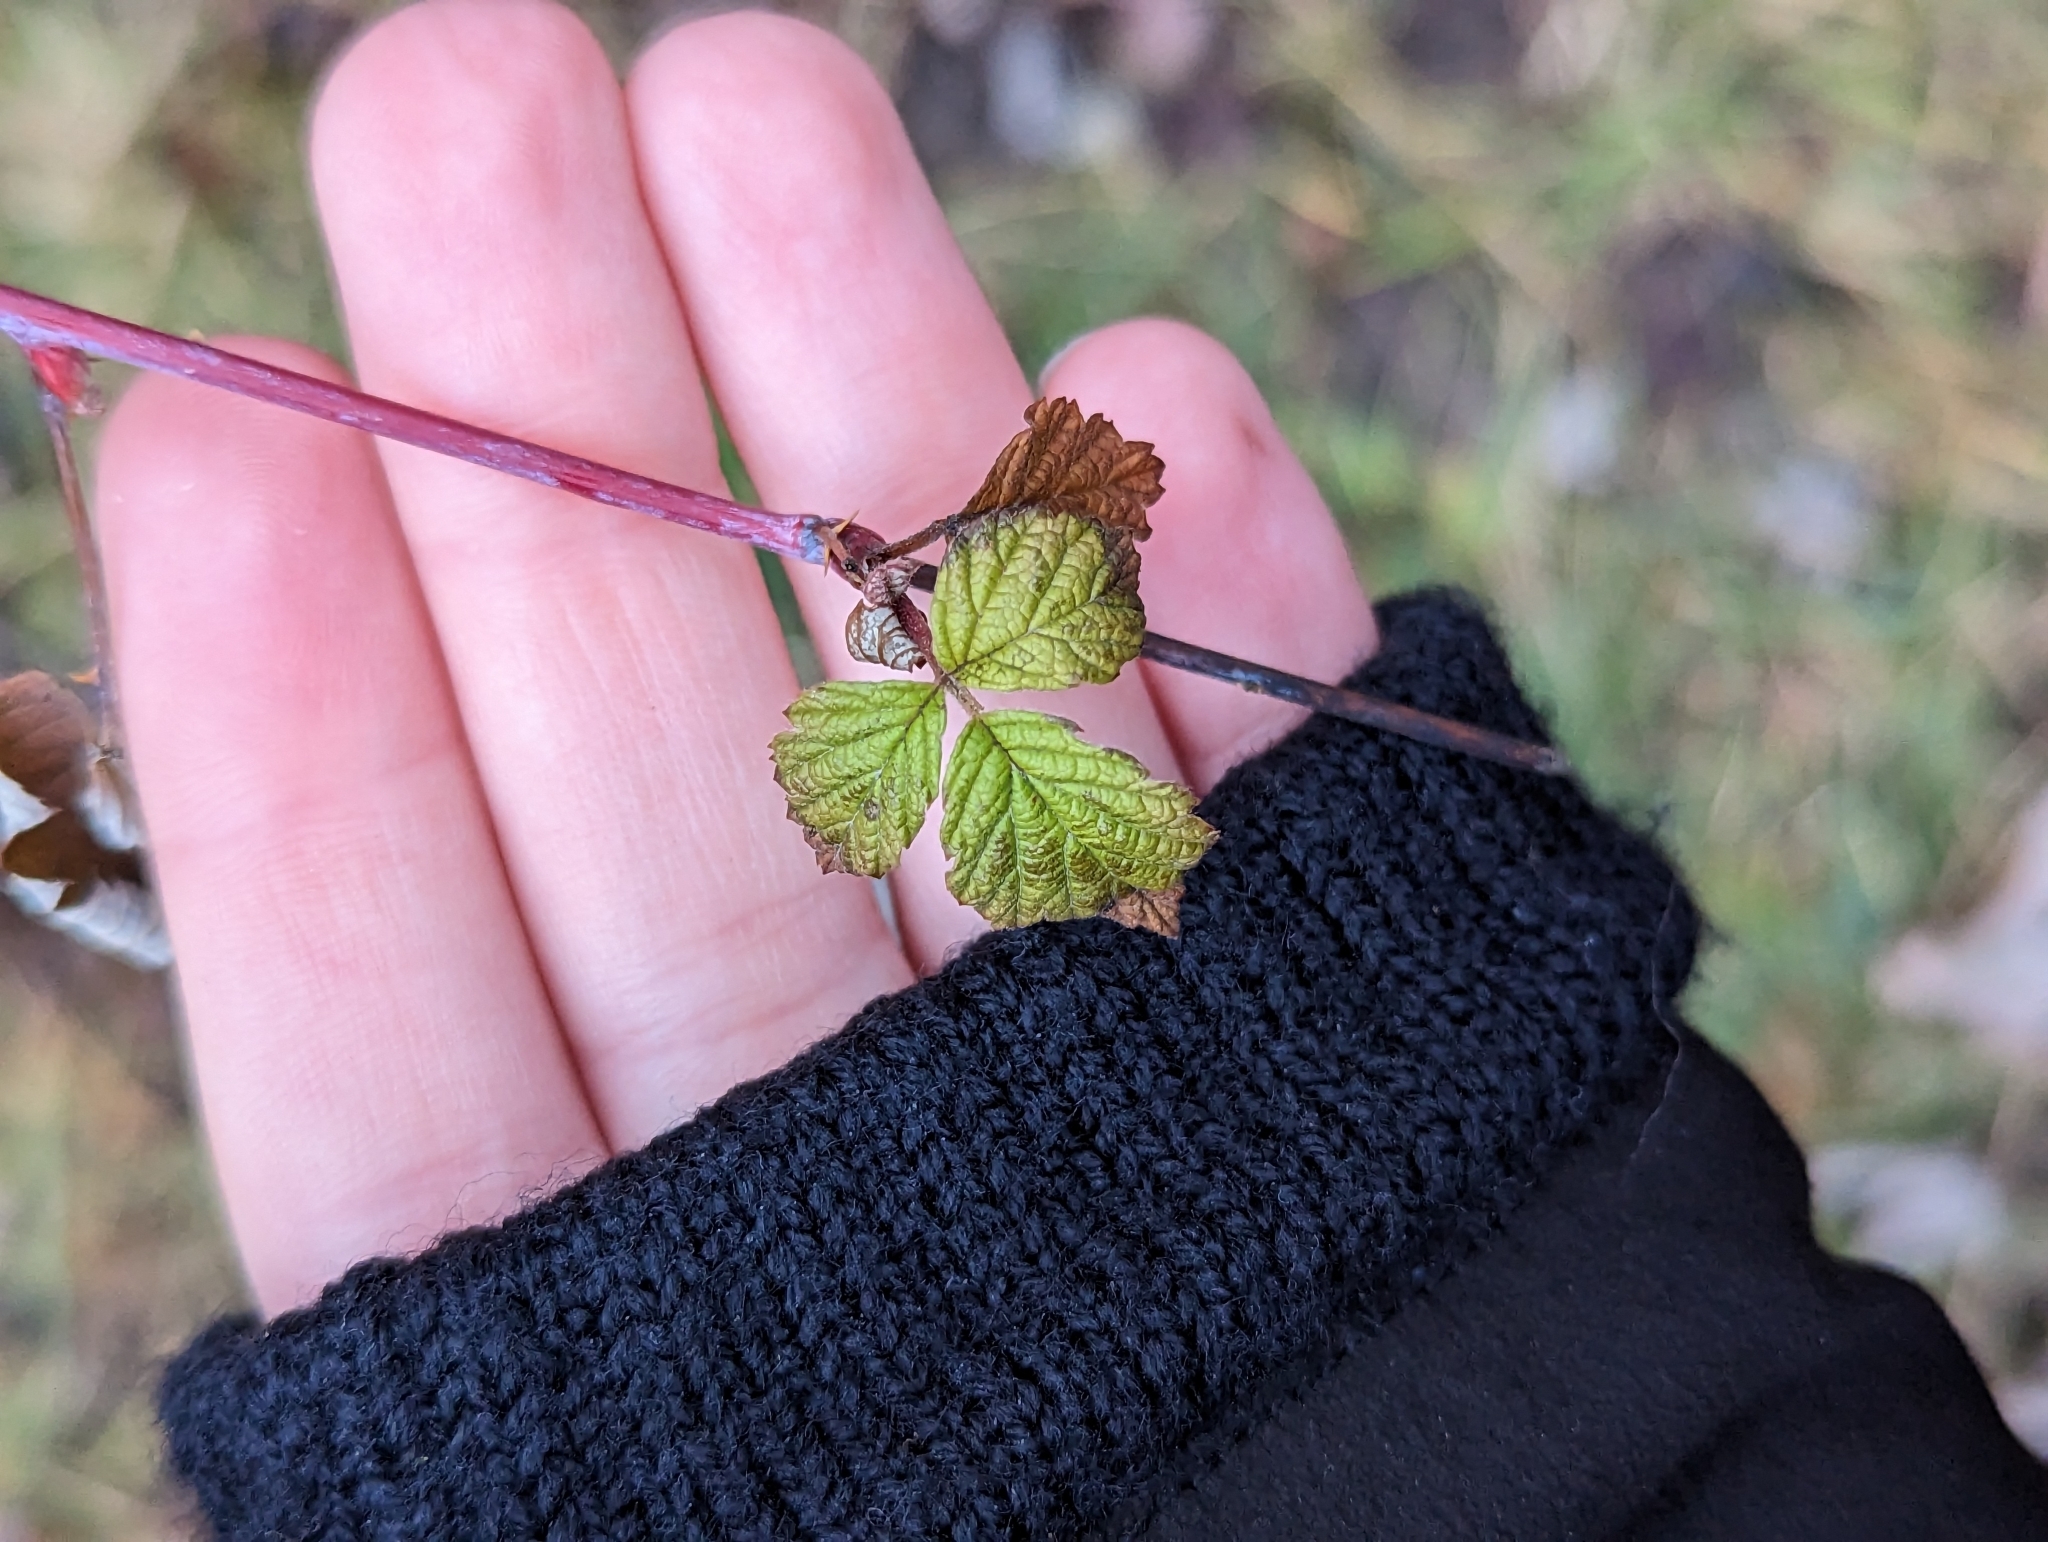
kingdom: Plantae
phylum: Tracheophyta
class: Magnoliopsida
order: Rosales
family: Rosaceae
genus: Rubus
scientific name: Rubus occidentalis
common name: Black raspberry
